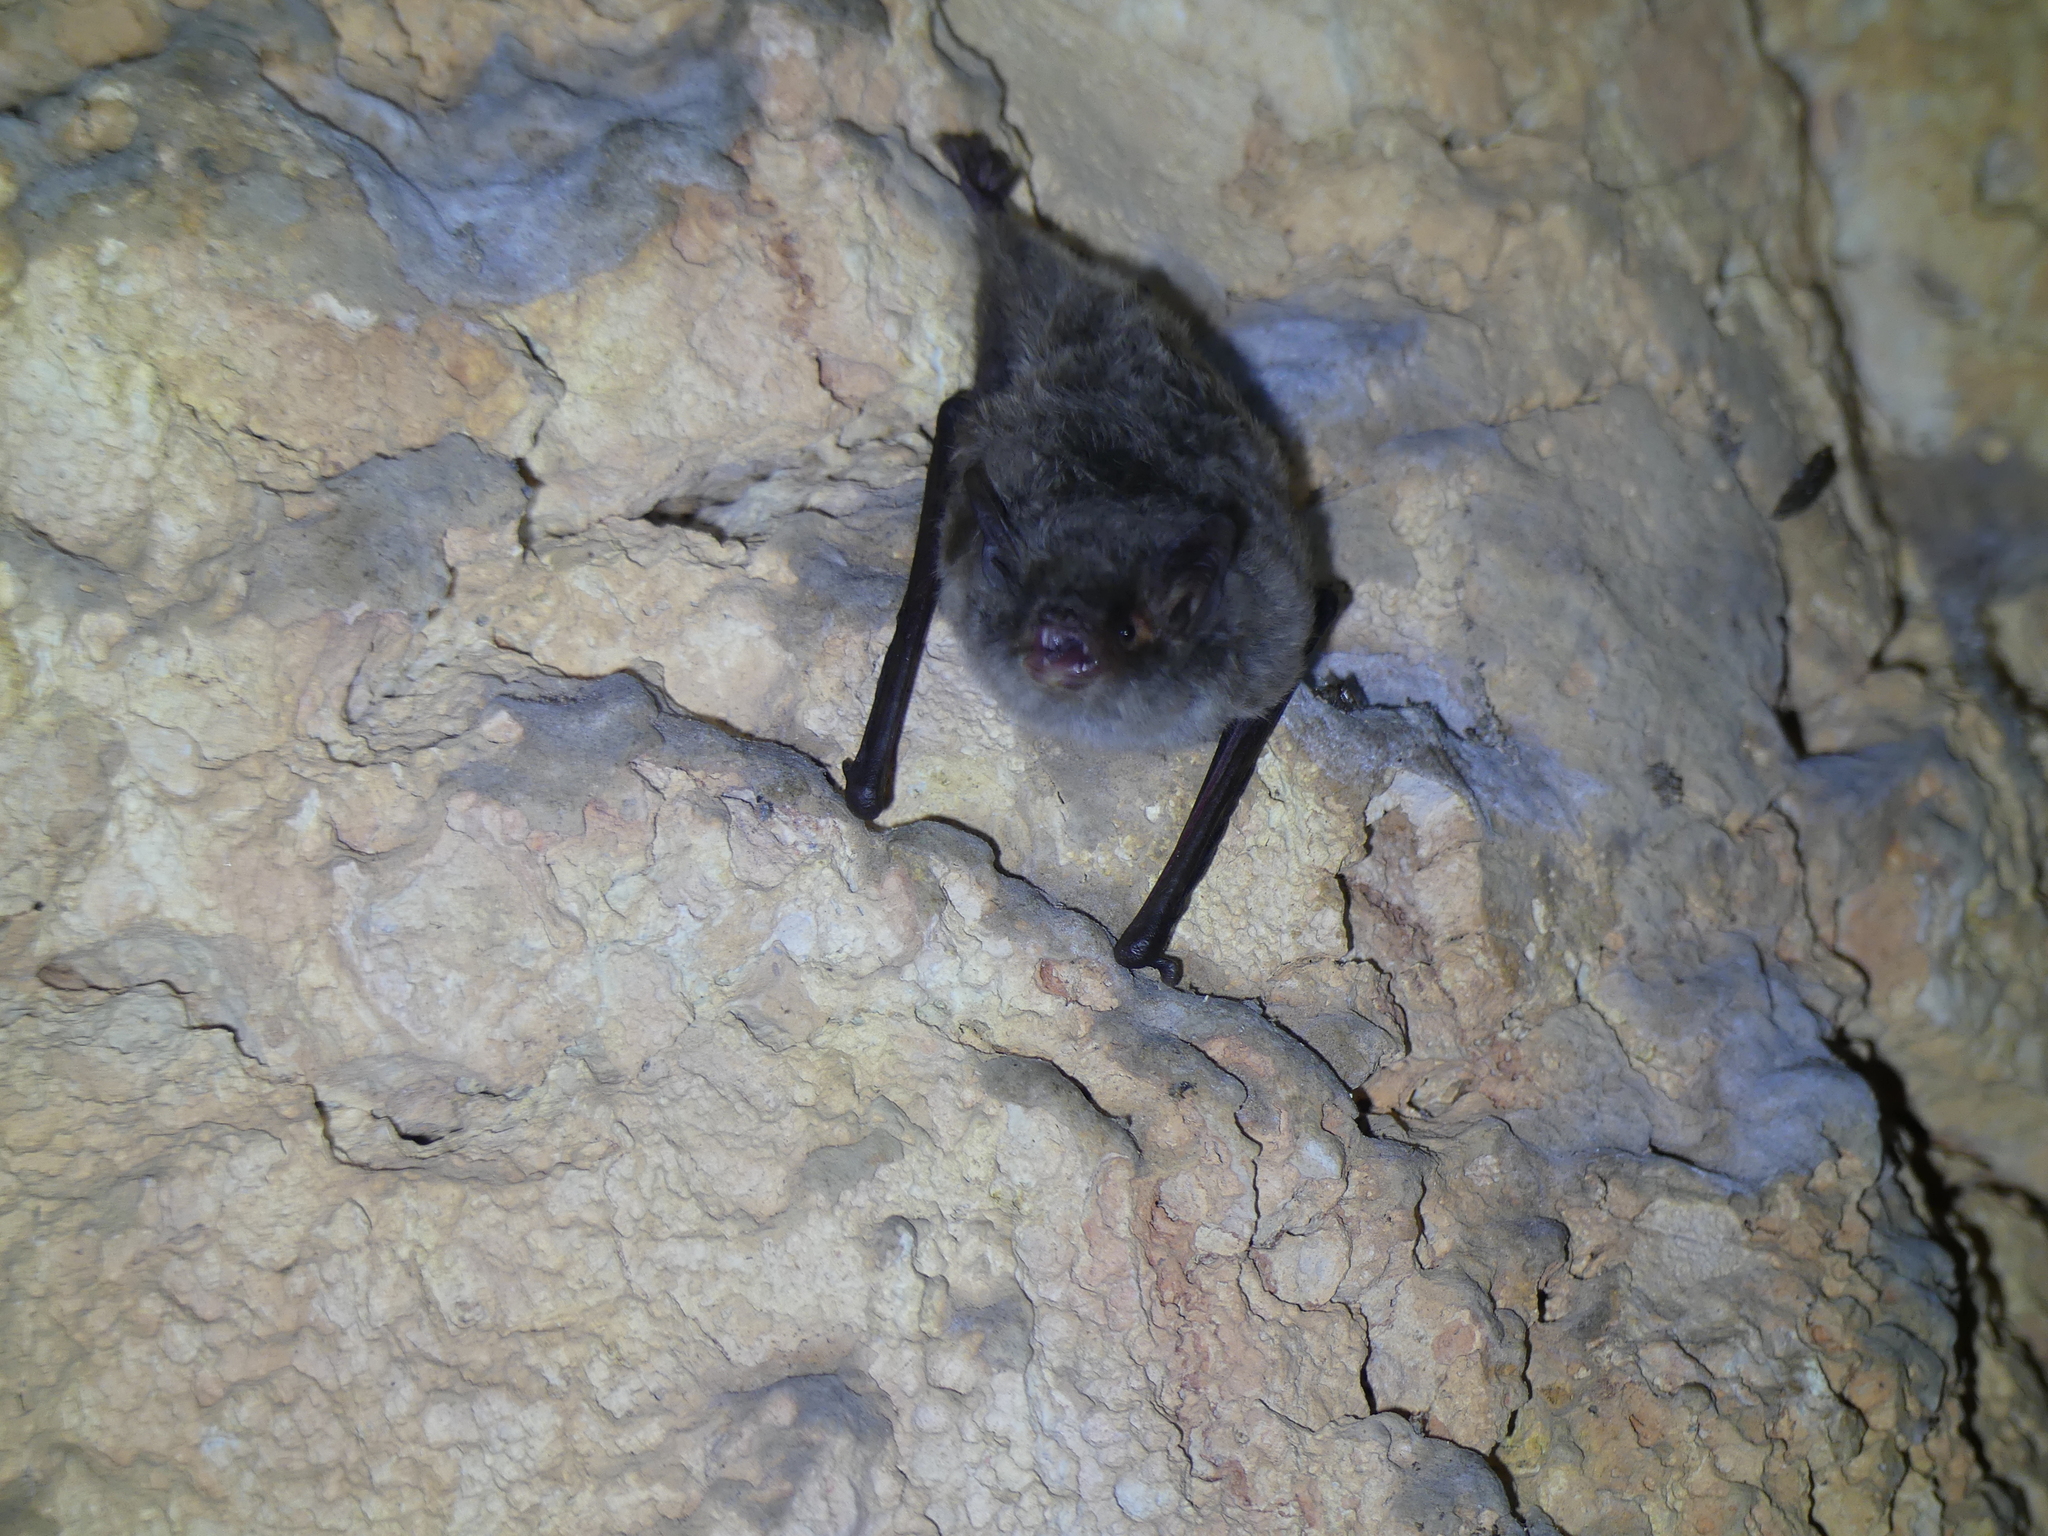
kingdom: Animalia
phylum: Chordata
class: Mammalia
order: Chiroptera
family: Vespertilionidae
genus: Myotis
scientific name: Myotis capaccinii
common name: Long-fingered bat
